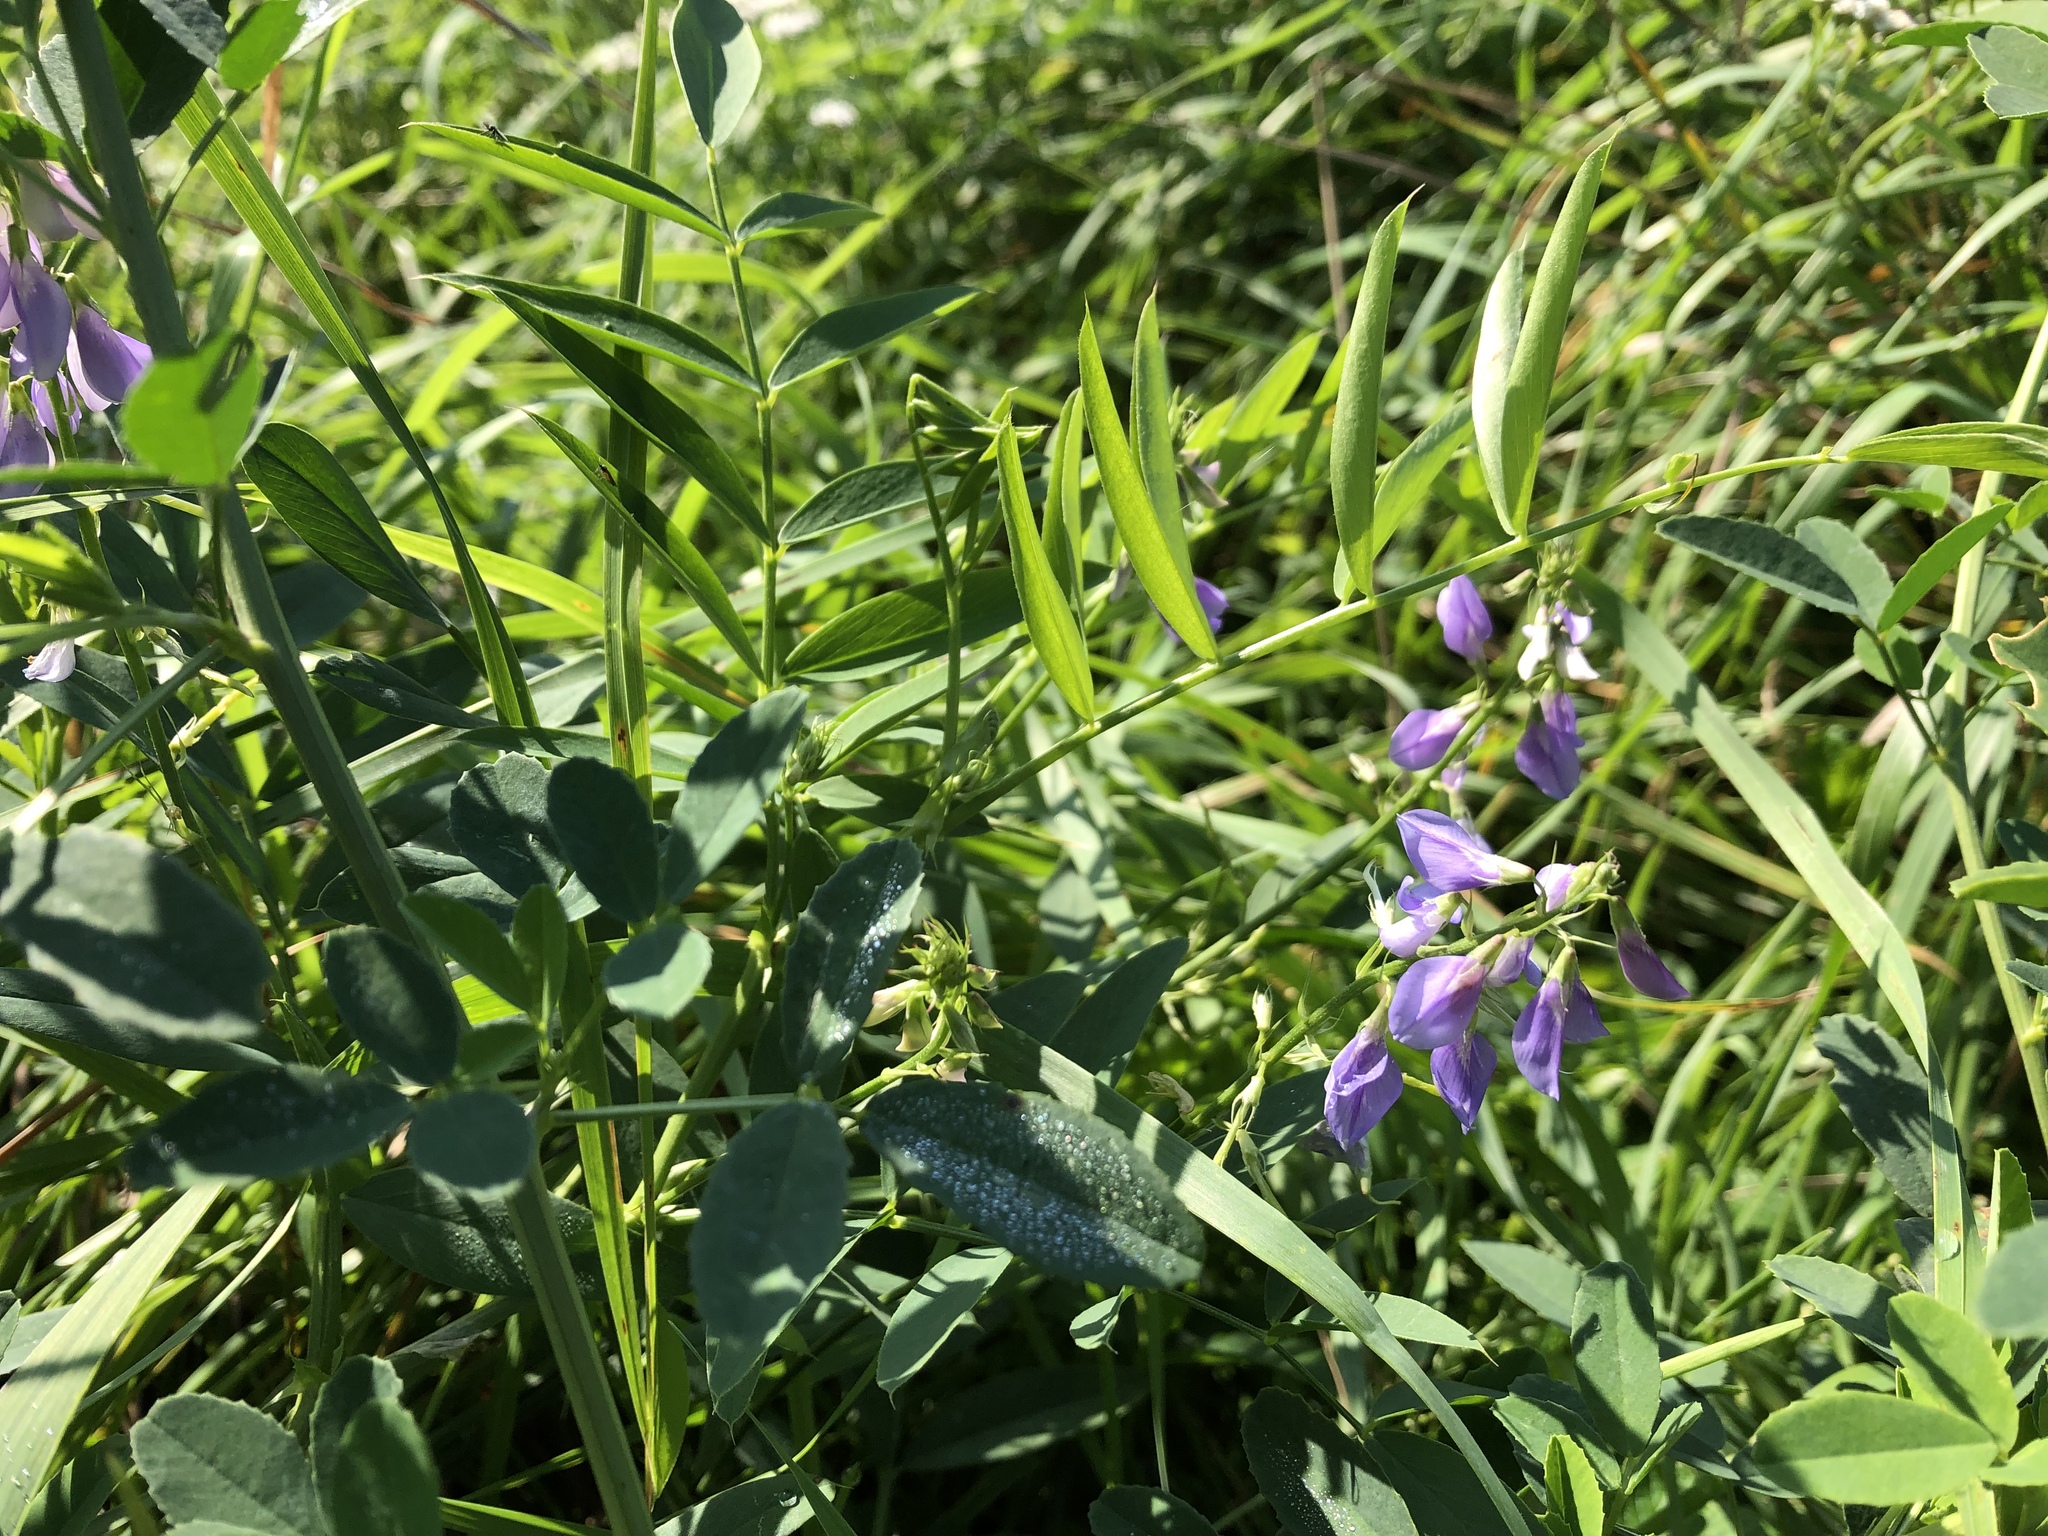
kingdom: Plantae
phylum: Tracheophyta
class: Magnoliopsida
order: Fabales
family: Fabaceae
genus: Galega
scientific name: Galega officinalis
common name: Goat's-rue
